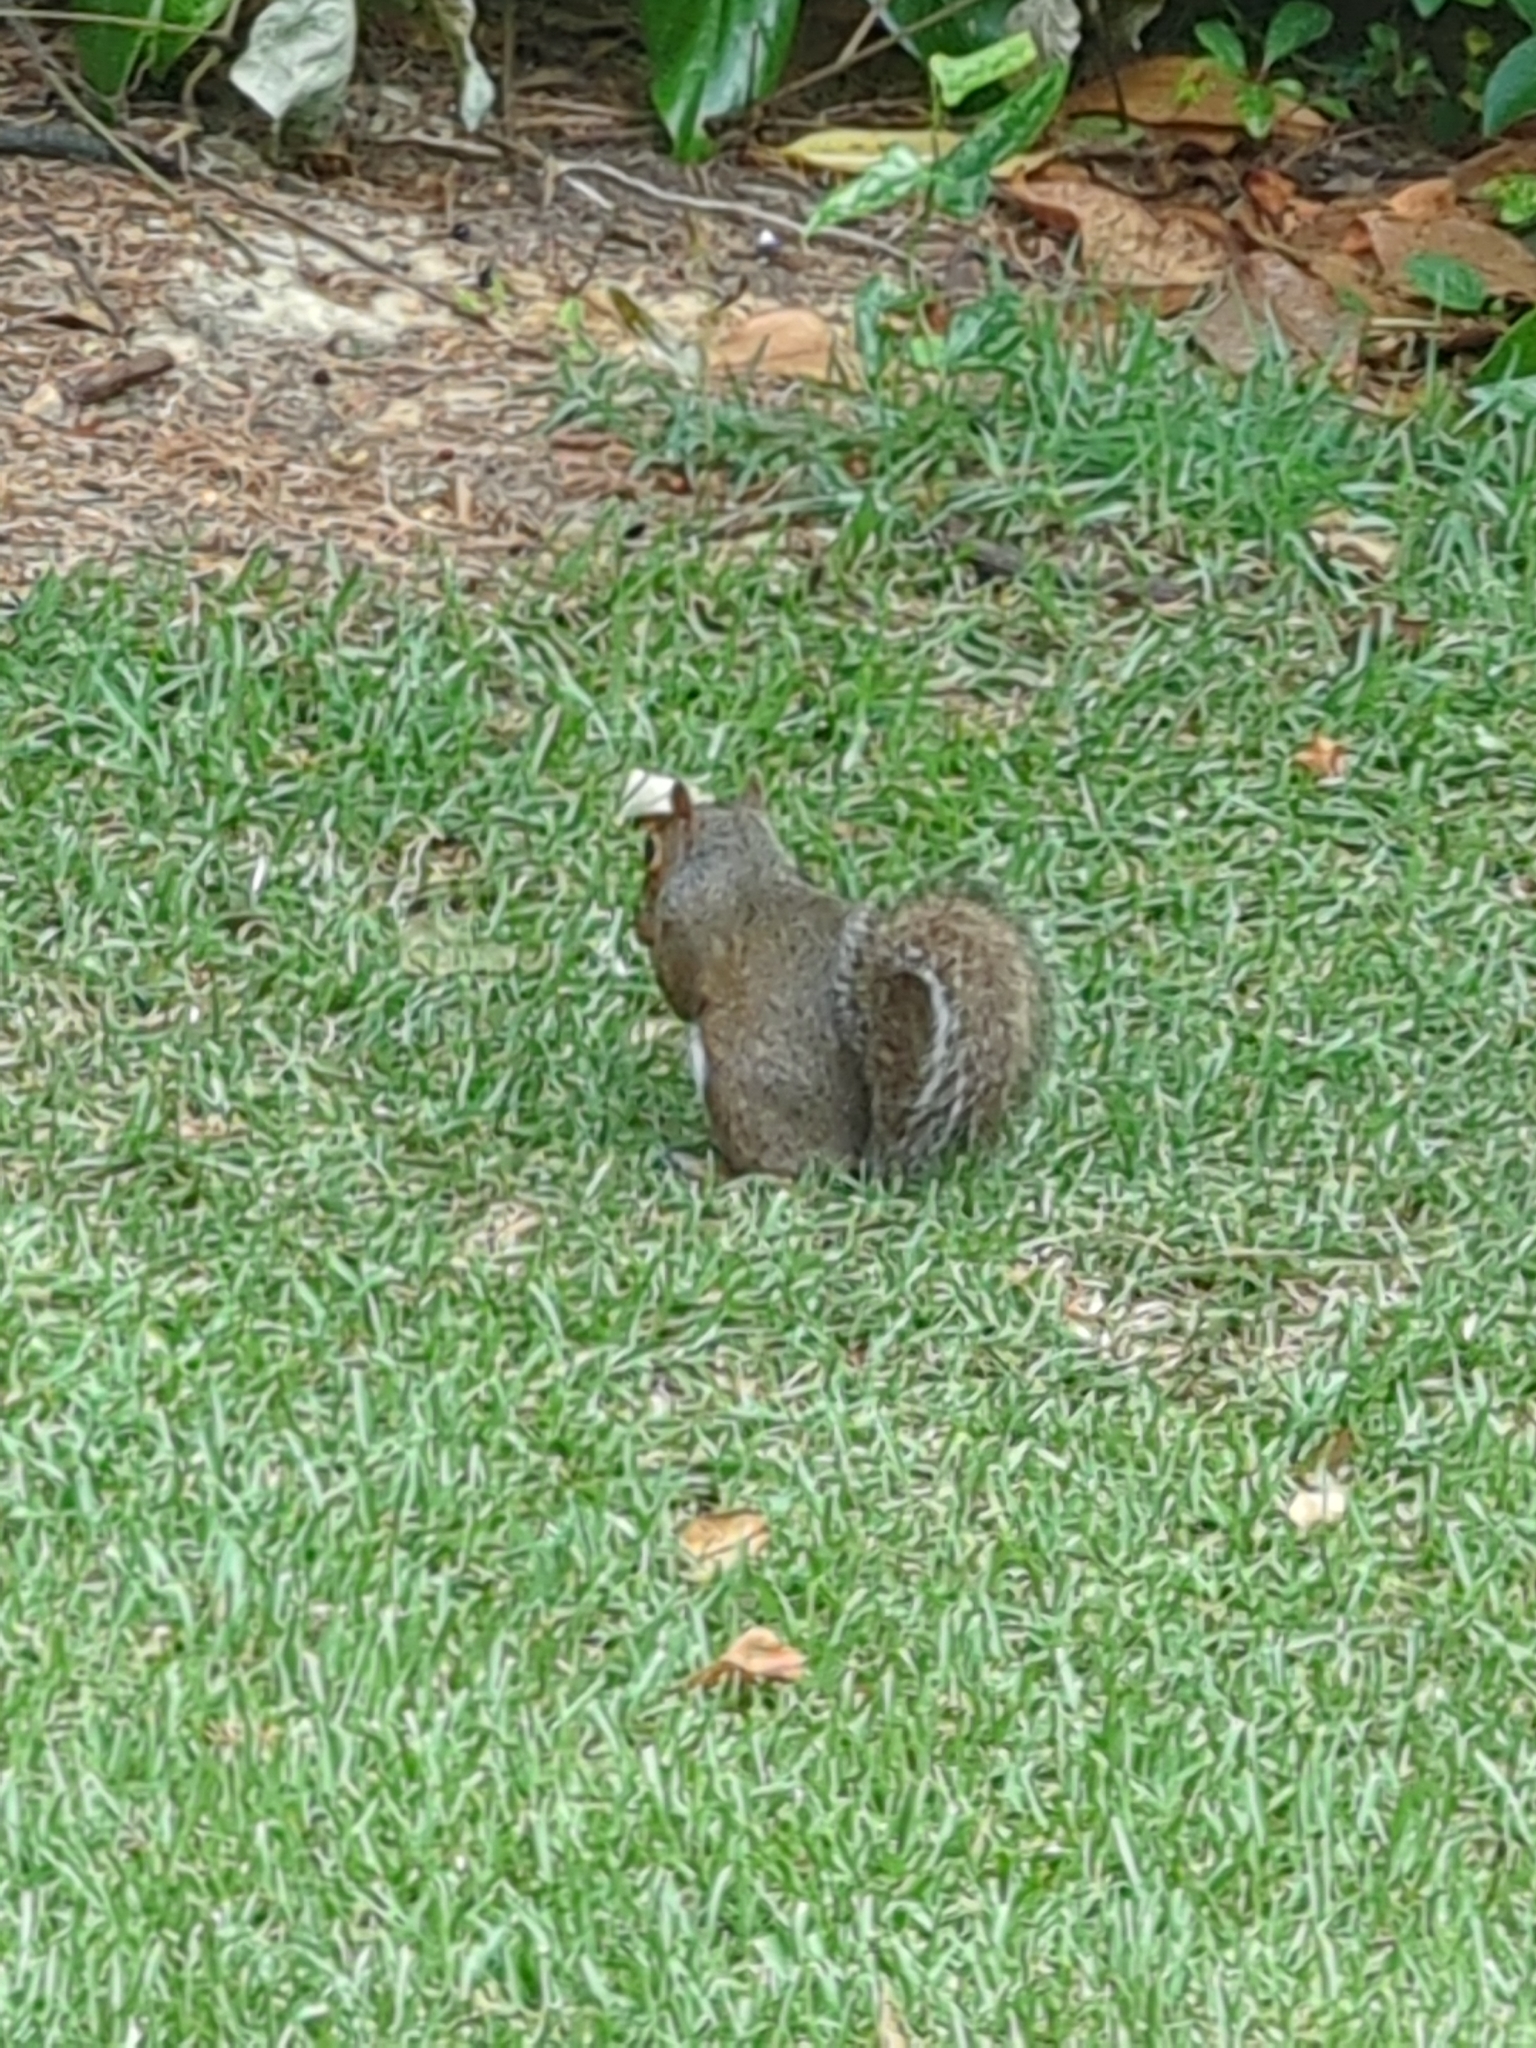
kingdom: Animalia
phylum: Chordata
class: Mammalia
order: Rodentia
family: Sciuridae
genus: Sciurus
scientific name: Sciurus carolinensis
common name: Eastern gray squirrel
